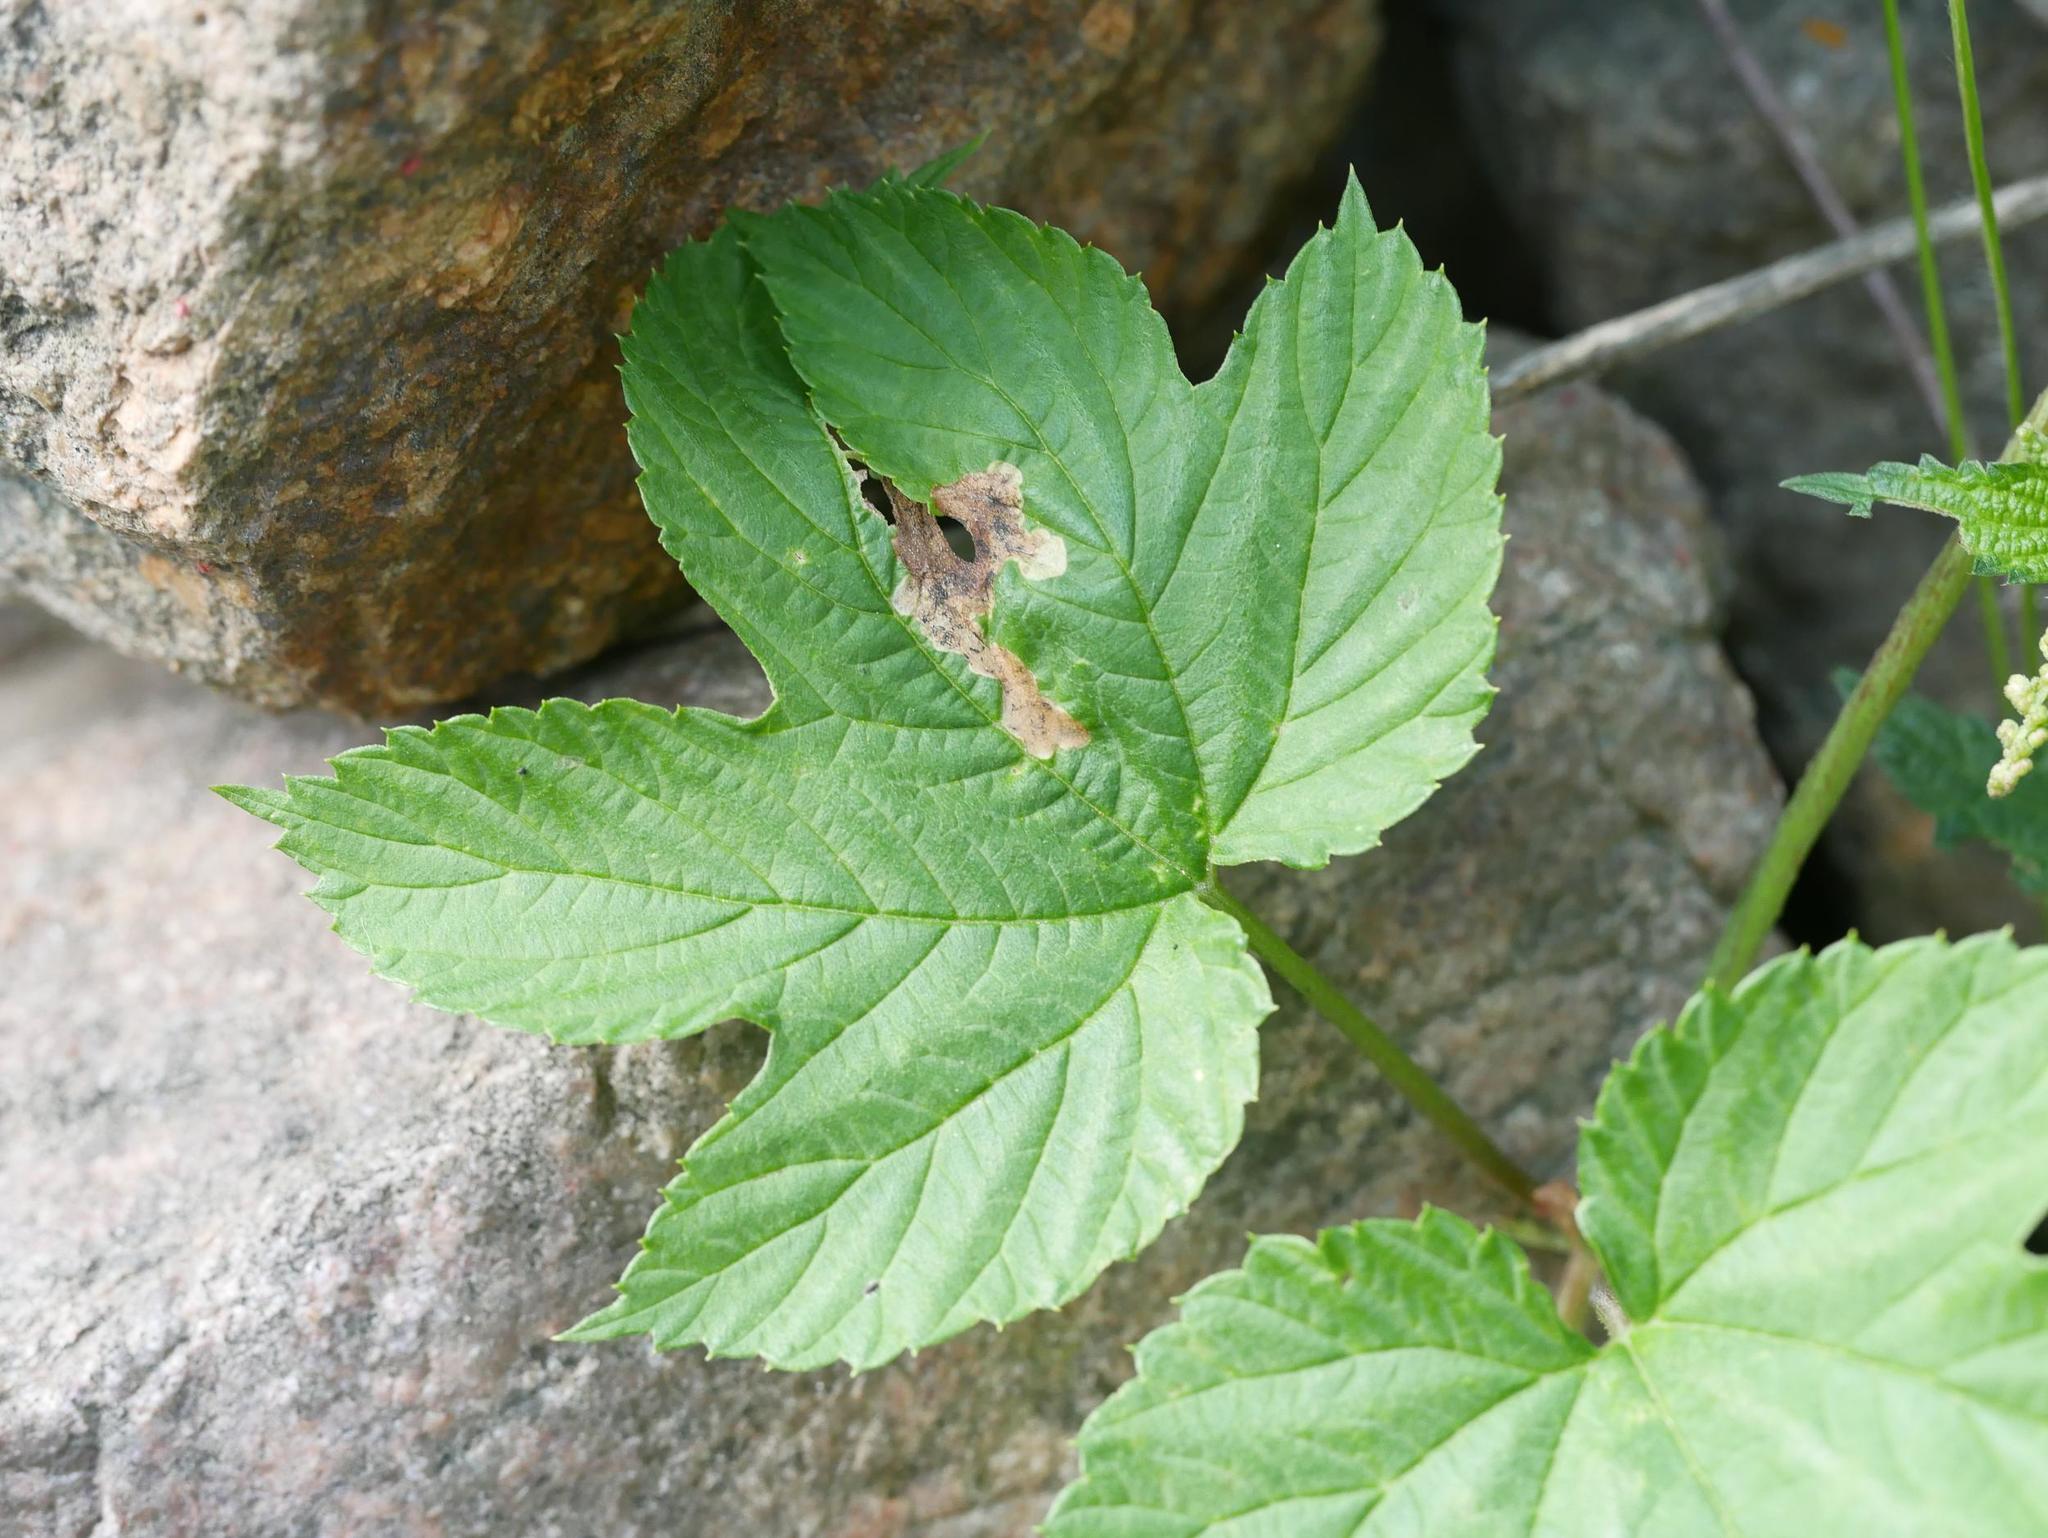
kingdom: Plantae
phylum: Tracheophyta
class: Magnoliopsida
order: Rosales
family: Cannabaceae
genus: Humulus
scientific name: Humulus lupulus
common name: Hop
